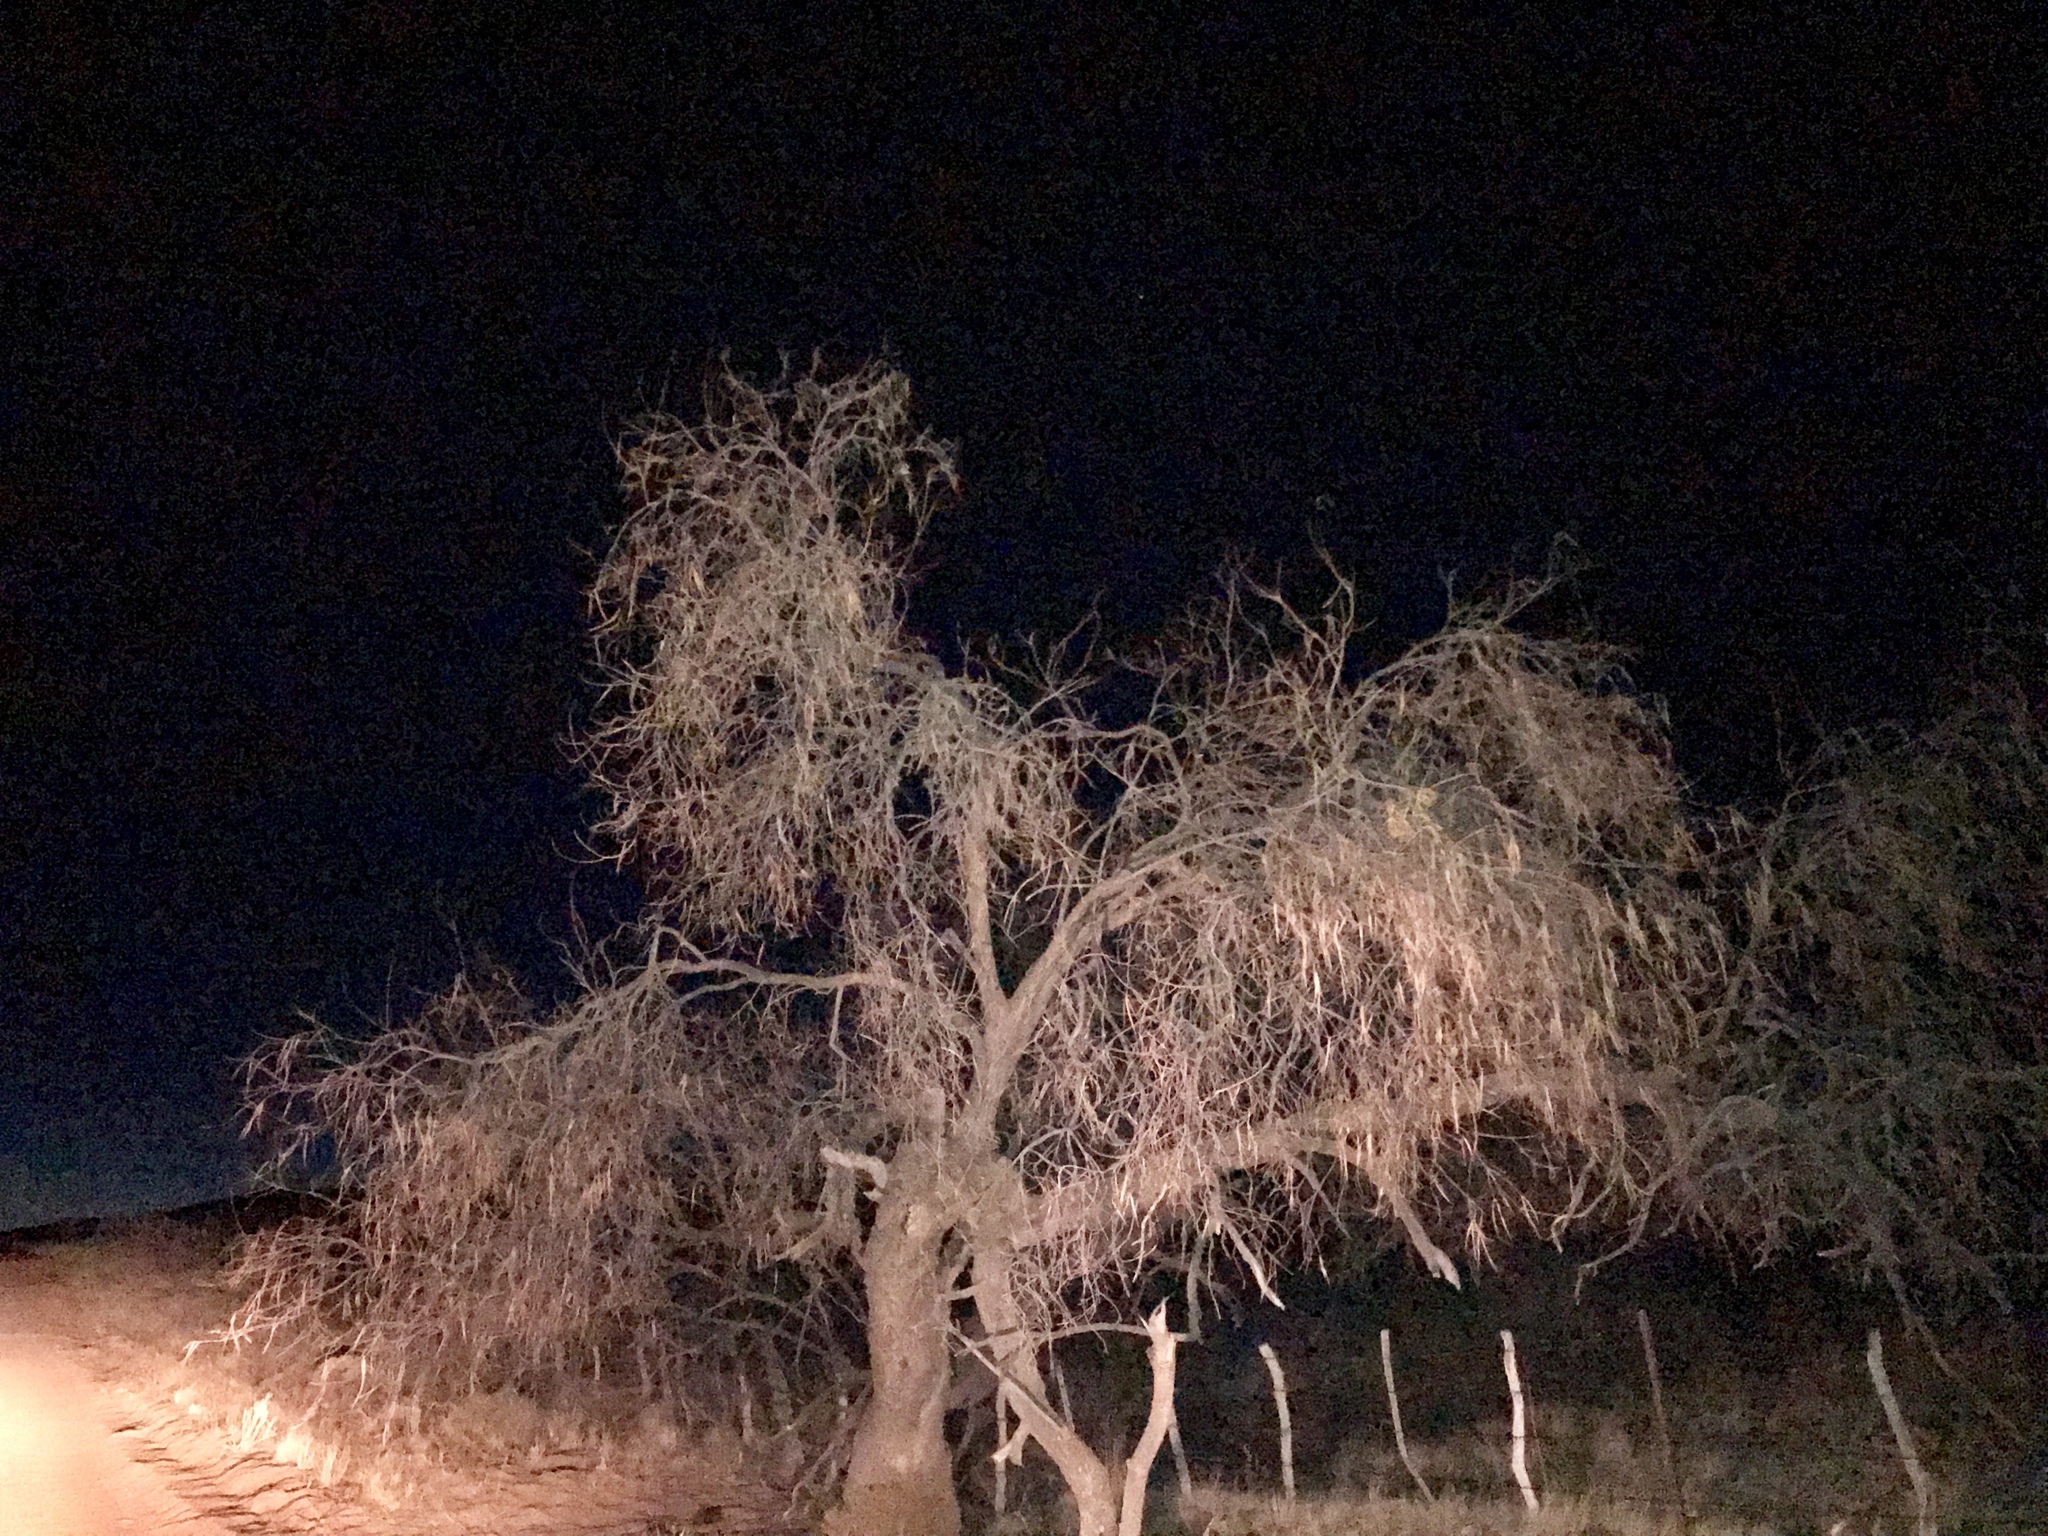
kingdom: Plantae
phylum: Tracheophyta
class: Magnoliopsida
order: Lamiales
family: Bignoniaceae
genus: Chilopsis
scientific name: Chilopsis linearis
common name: Desert-willow
